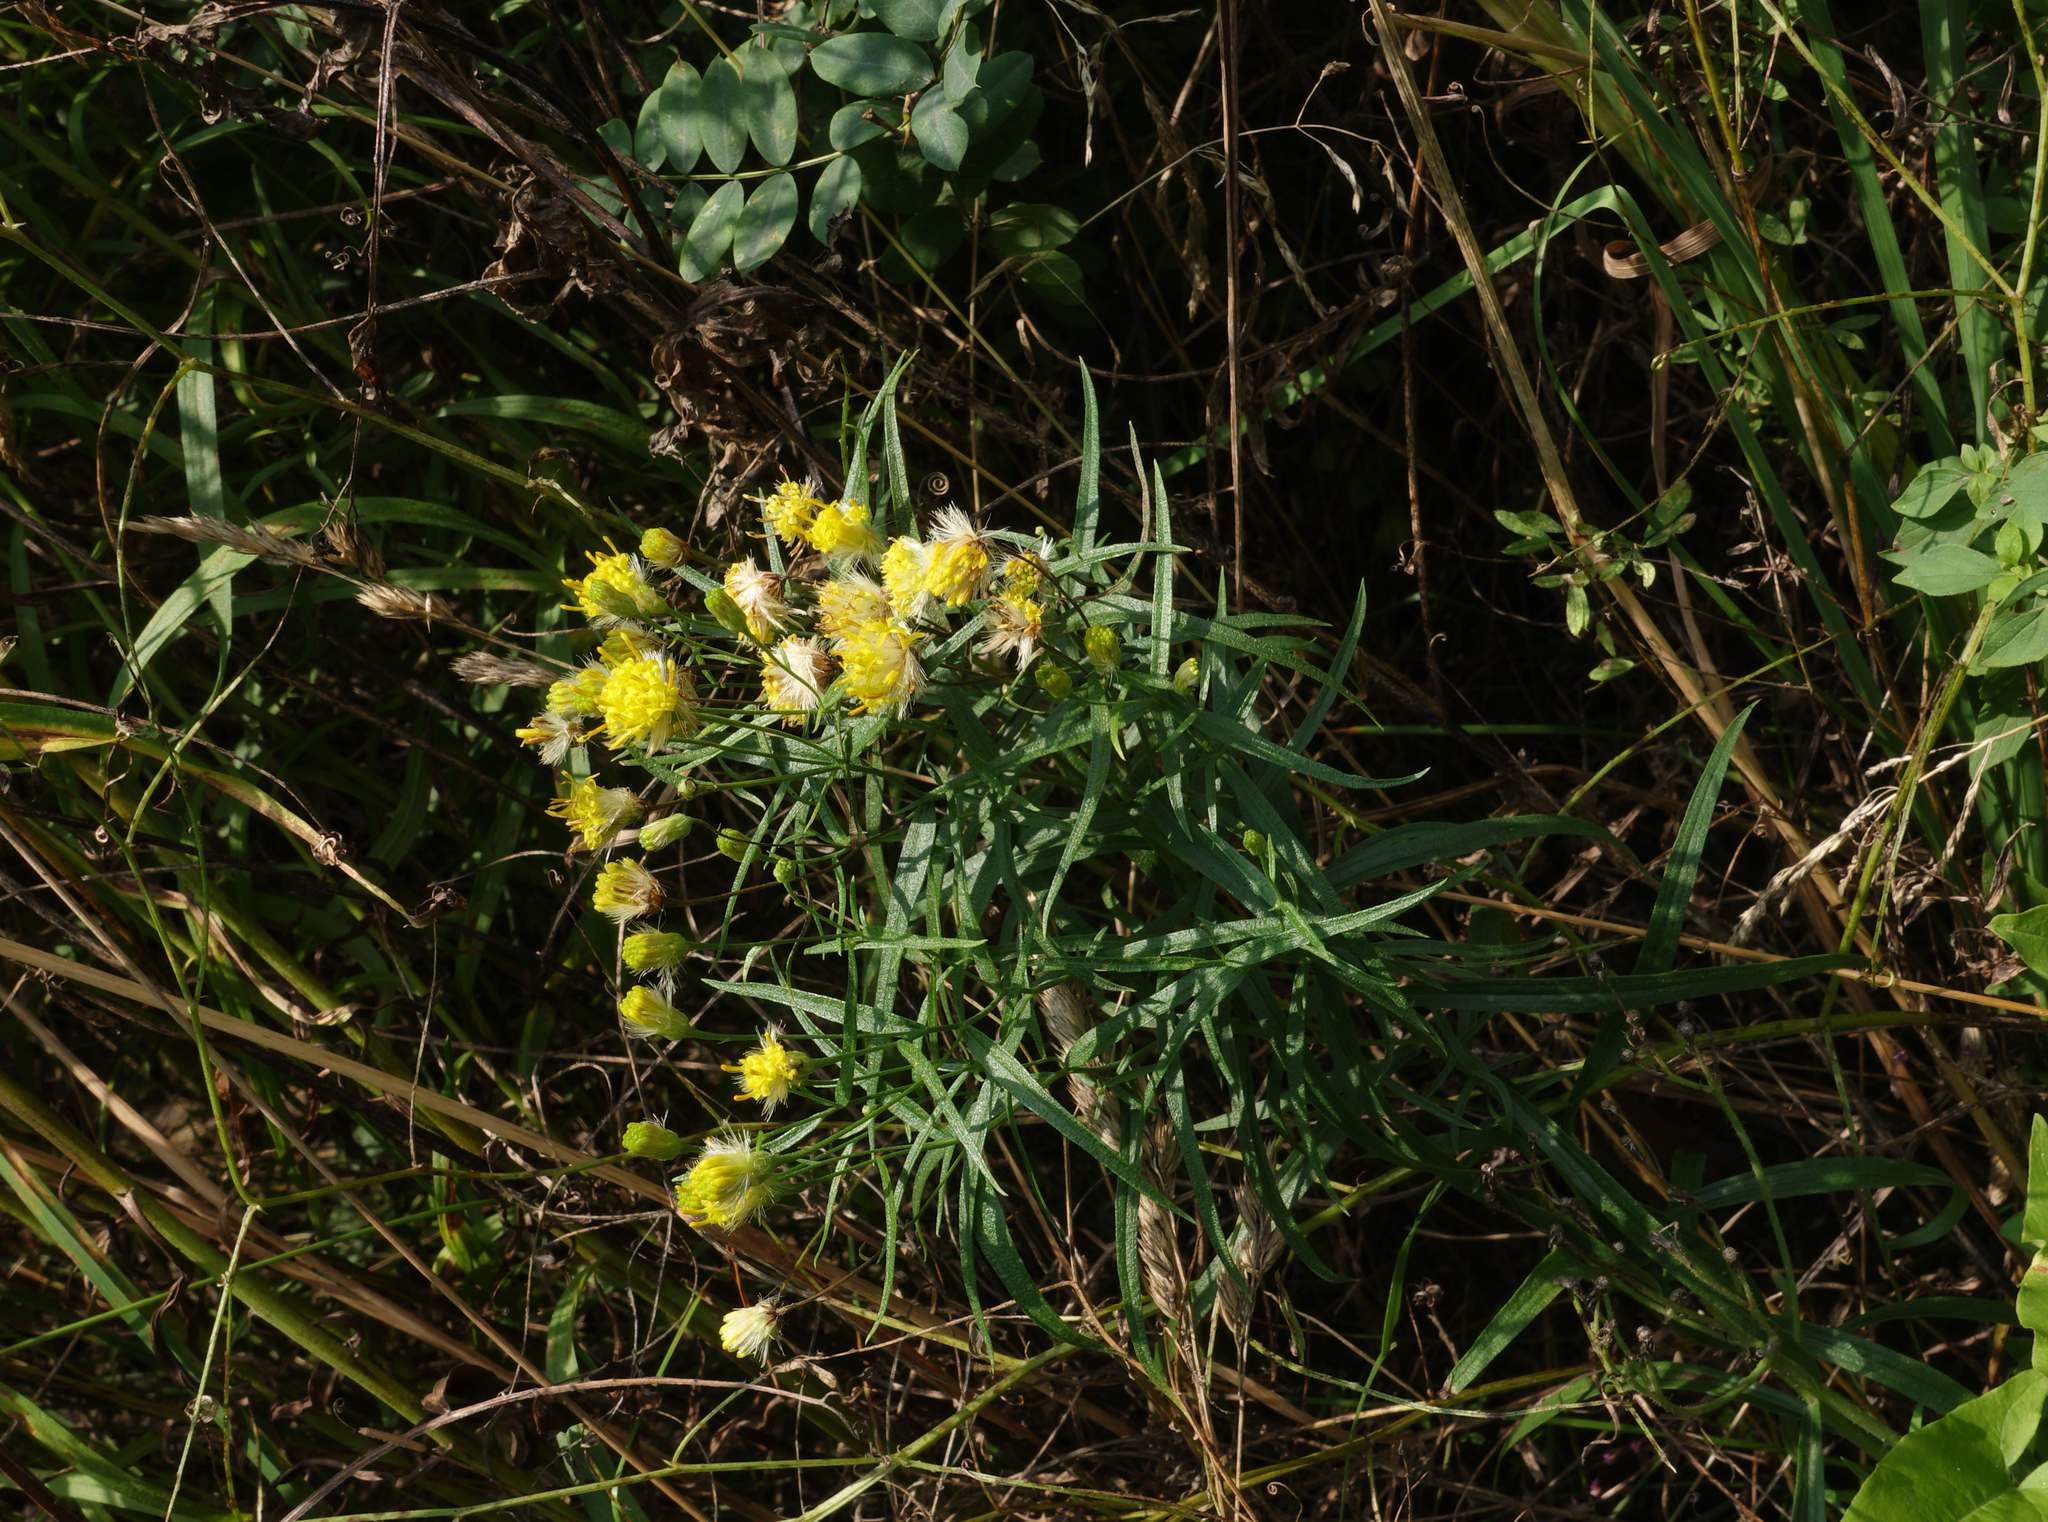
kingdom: Plantae
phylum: Tracheophyta
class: Magnoliopsida
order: Asterales
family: Asteraceae
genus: Galatella
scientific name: Galatella biflora
